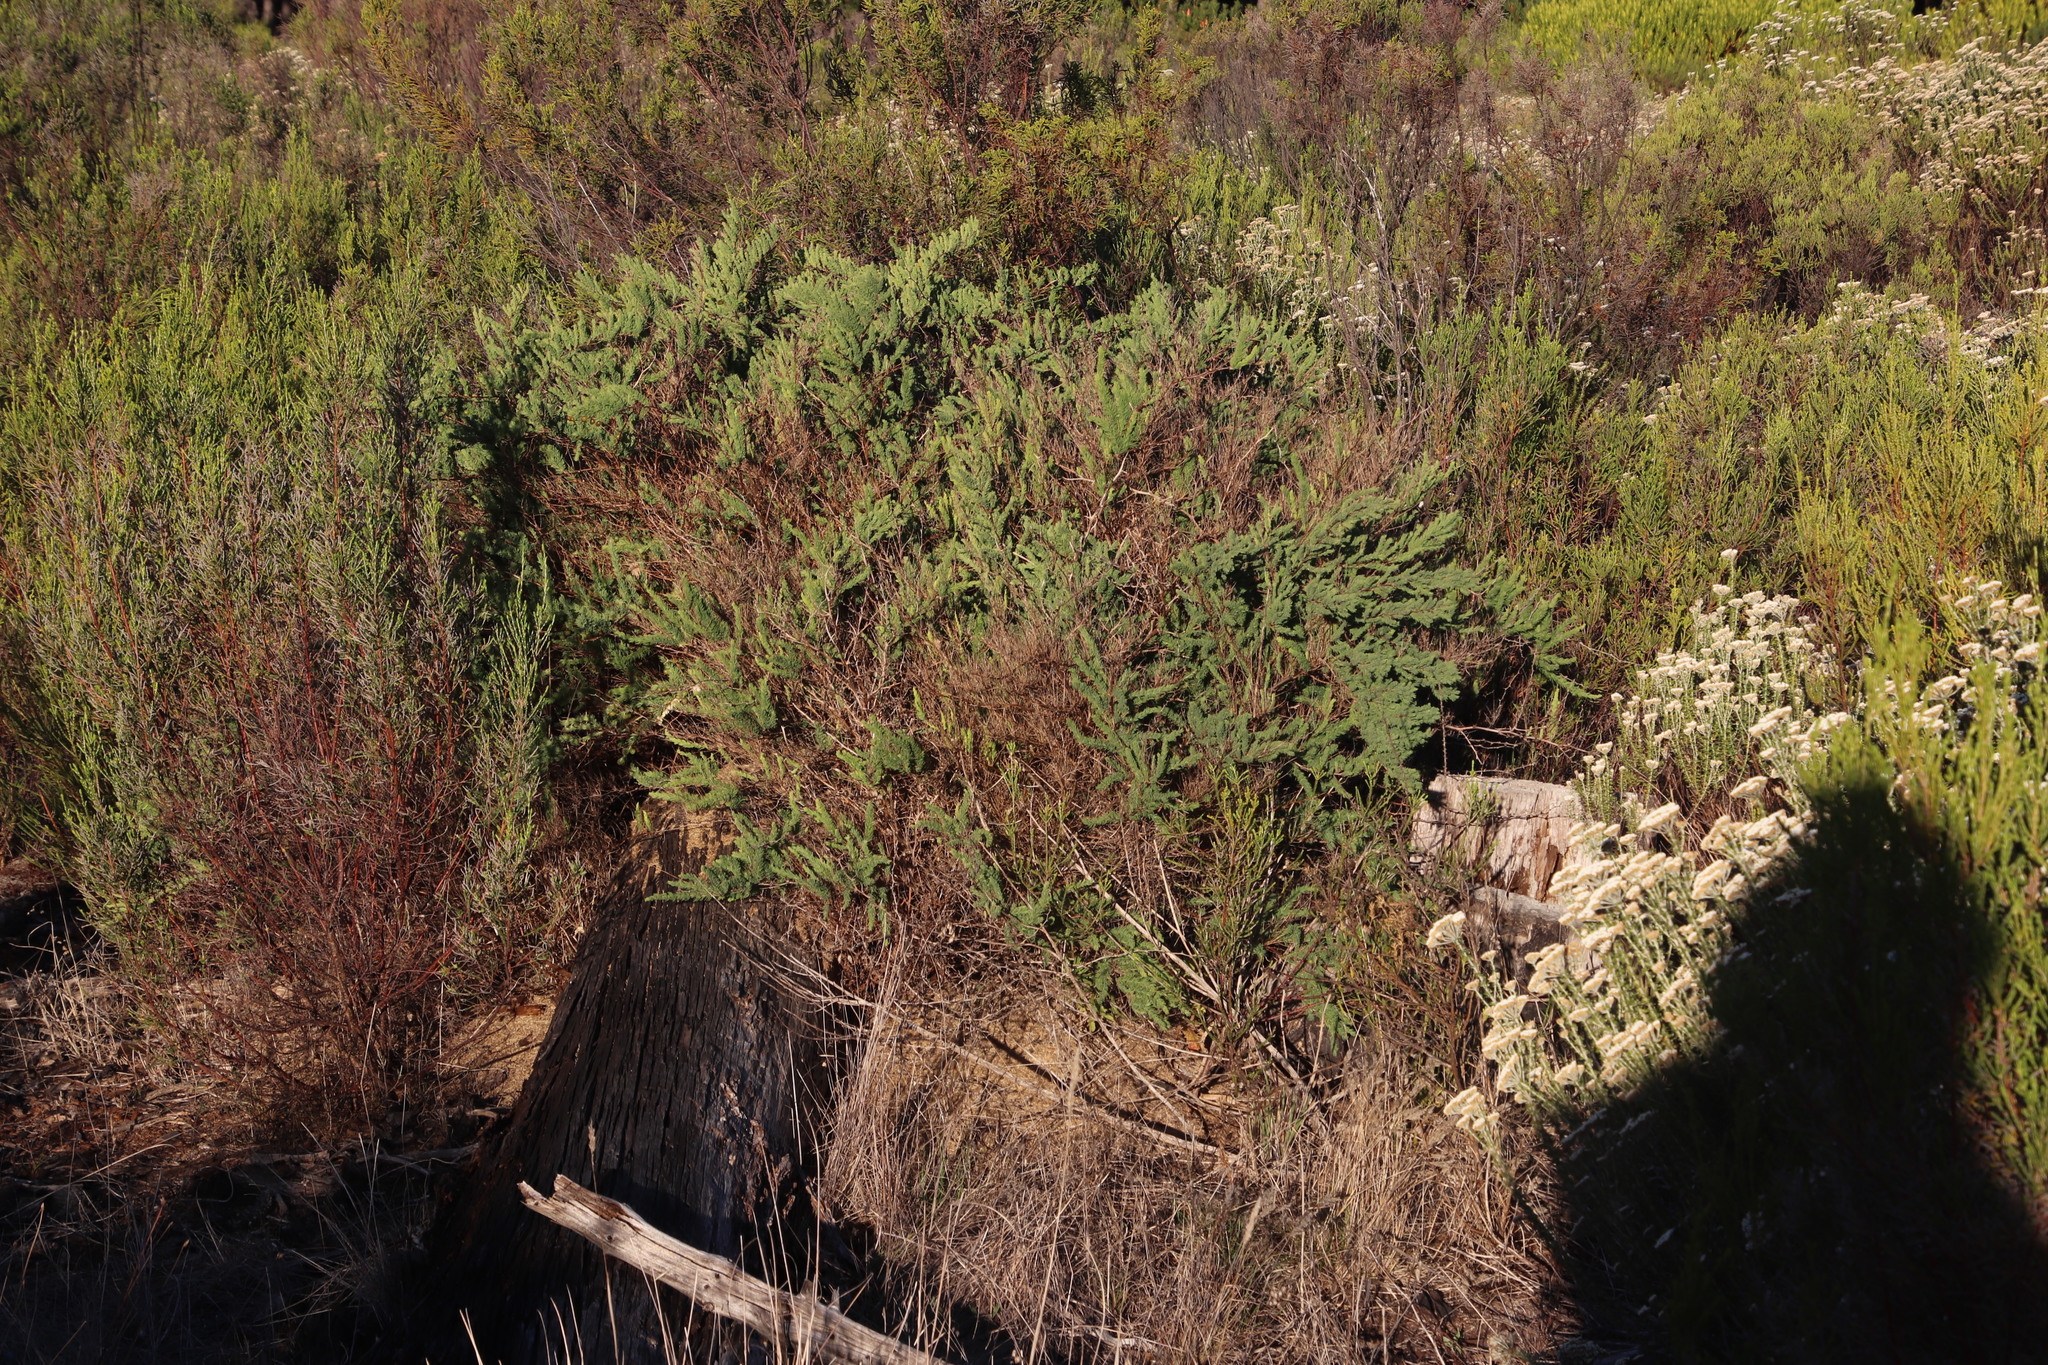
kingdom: Plantae
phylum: Tracheophyta
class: Liliopsida
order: Asparagales
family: Asparagaceae
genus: Asparagus
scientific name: Asparagus rubicundus
